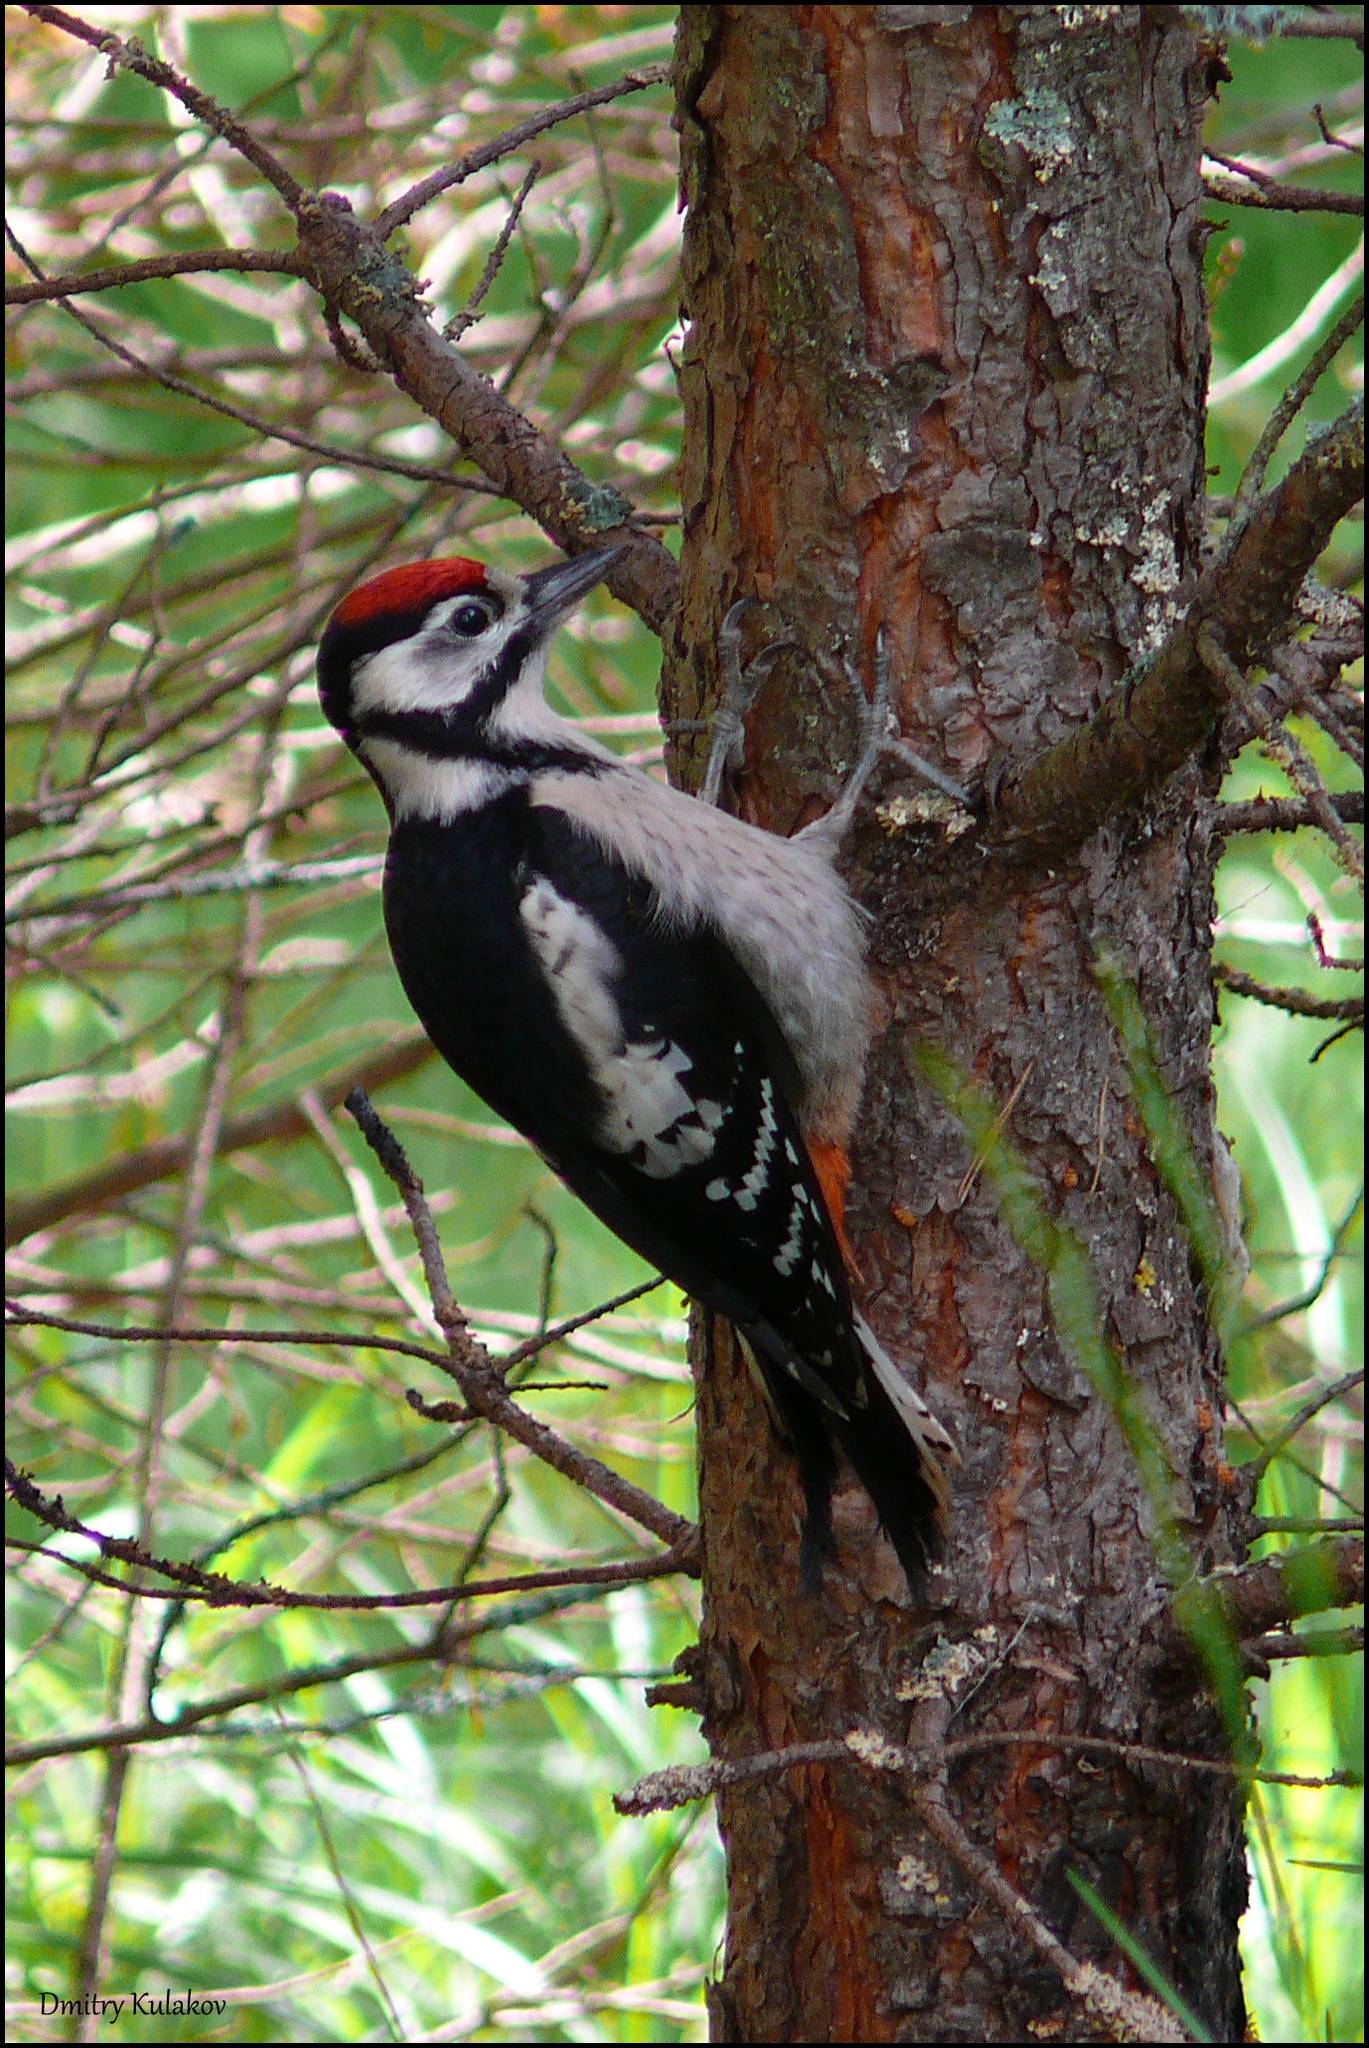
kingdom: Animalia
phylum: Chordata
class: Aves
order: Piciformes
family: Picidae
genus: Dendrocopos
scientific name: Dendrocopos major
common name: Great spotted woodpecker
